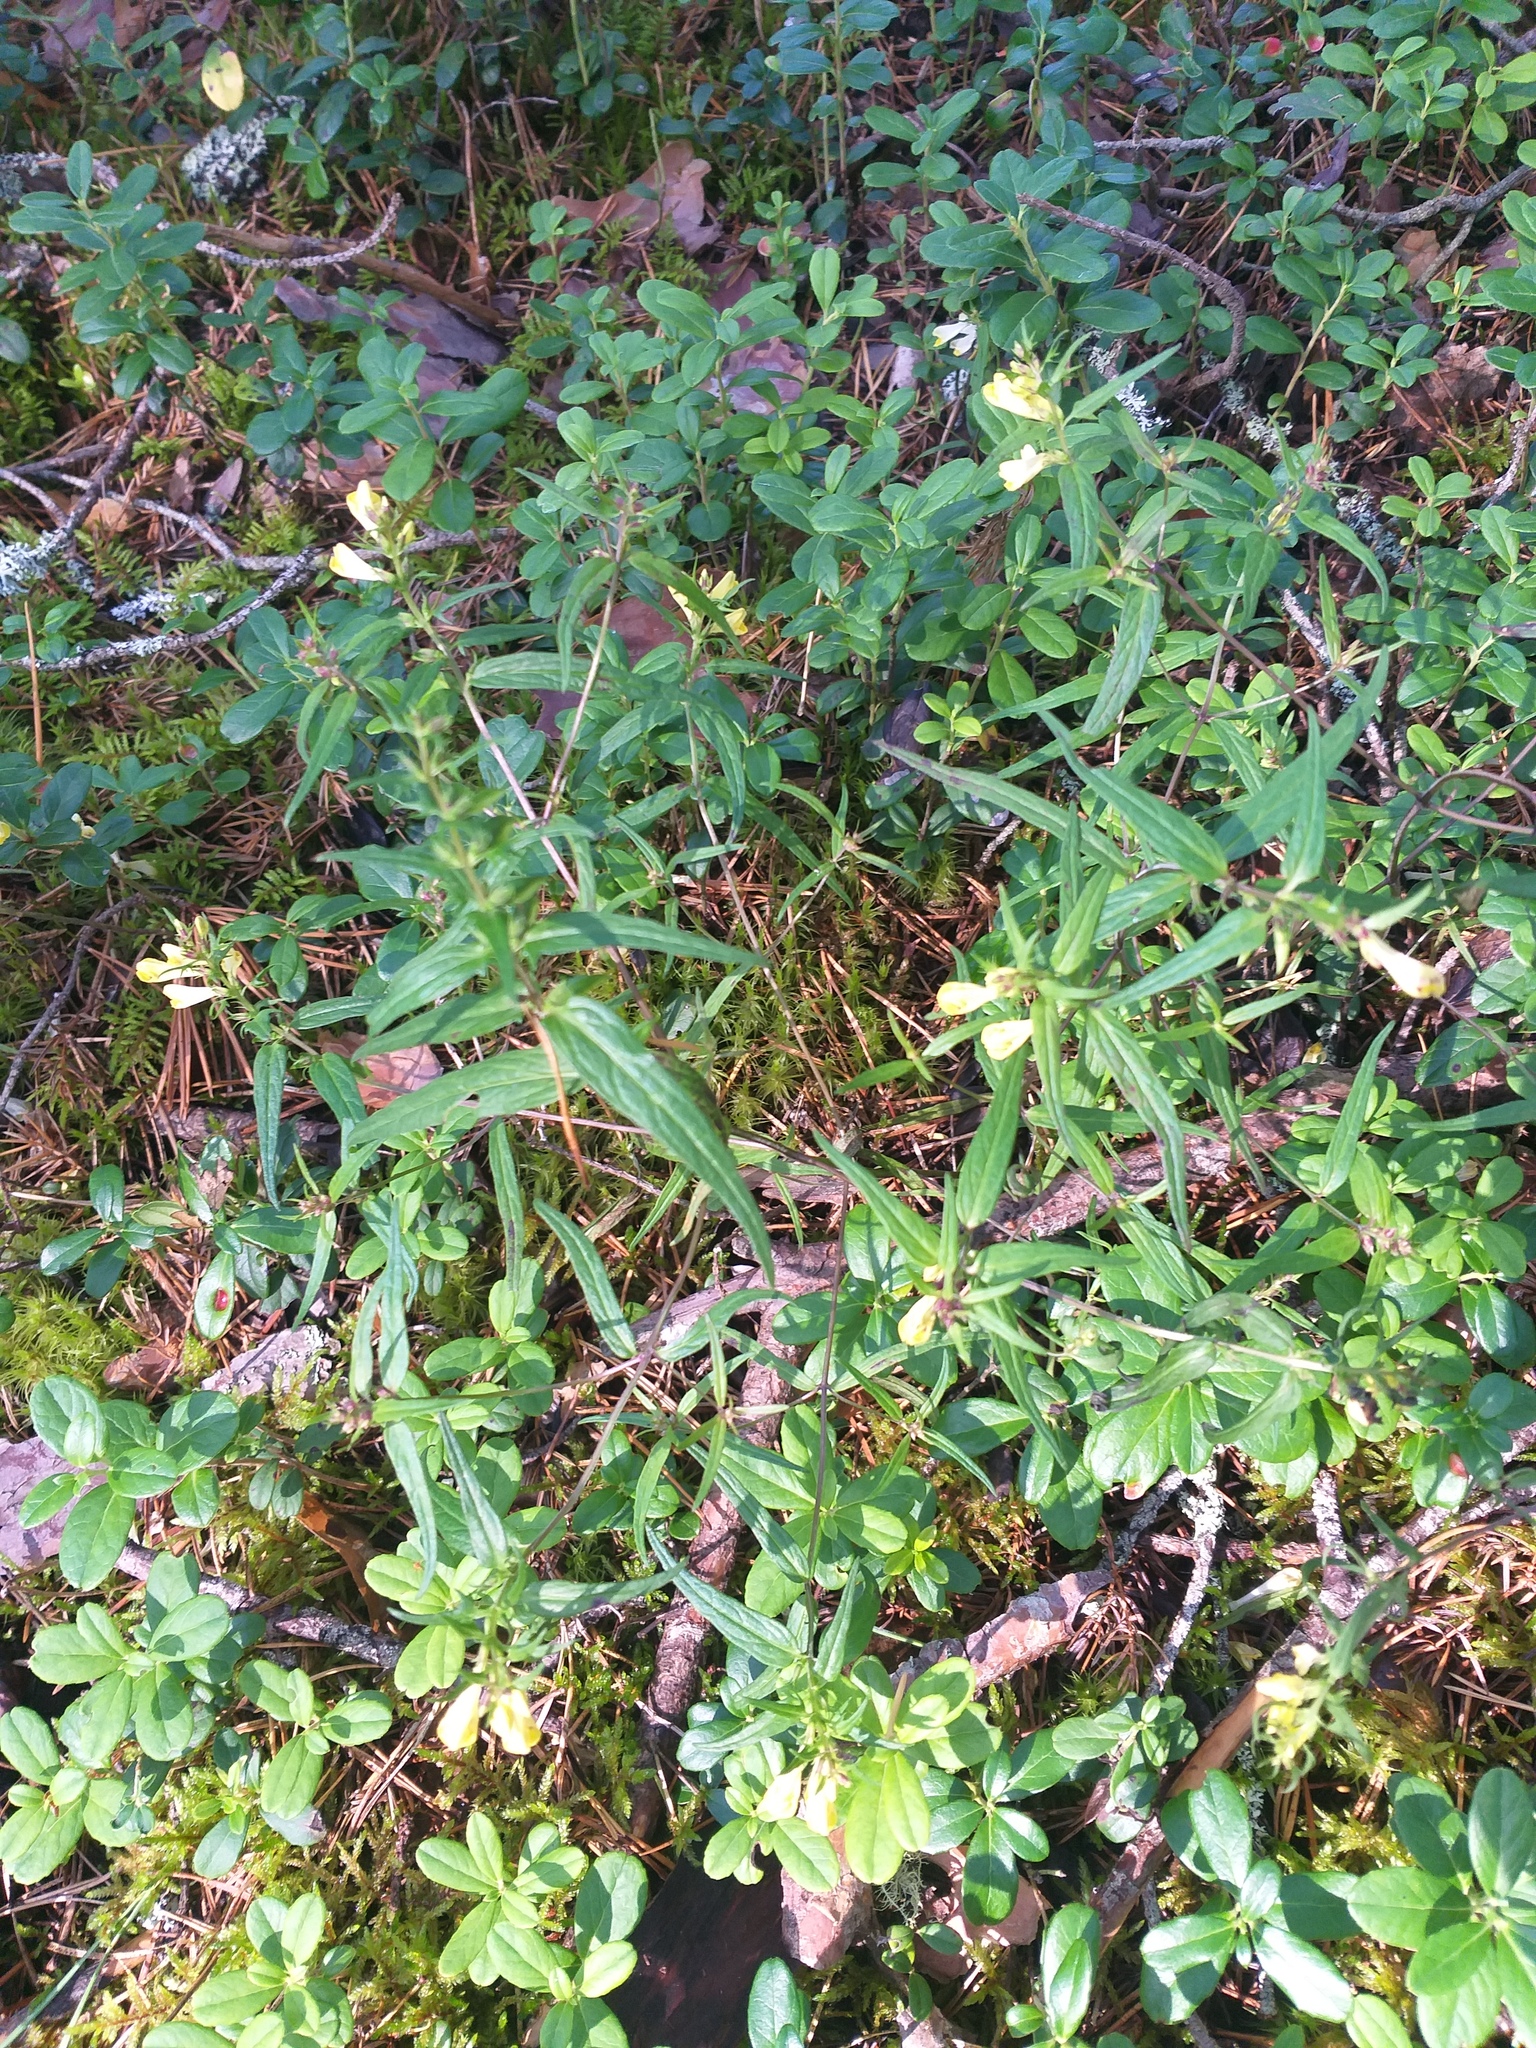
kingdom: Plantae
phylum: Tracheophyta
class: Magnoliopsida
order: Lamiales
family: Orobanchaceae
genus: Melampyrum
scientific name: Melampyrum pratense
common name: Common cow-wheat
